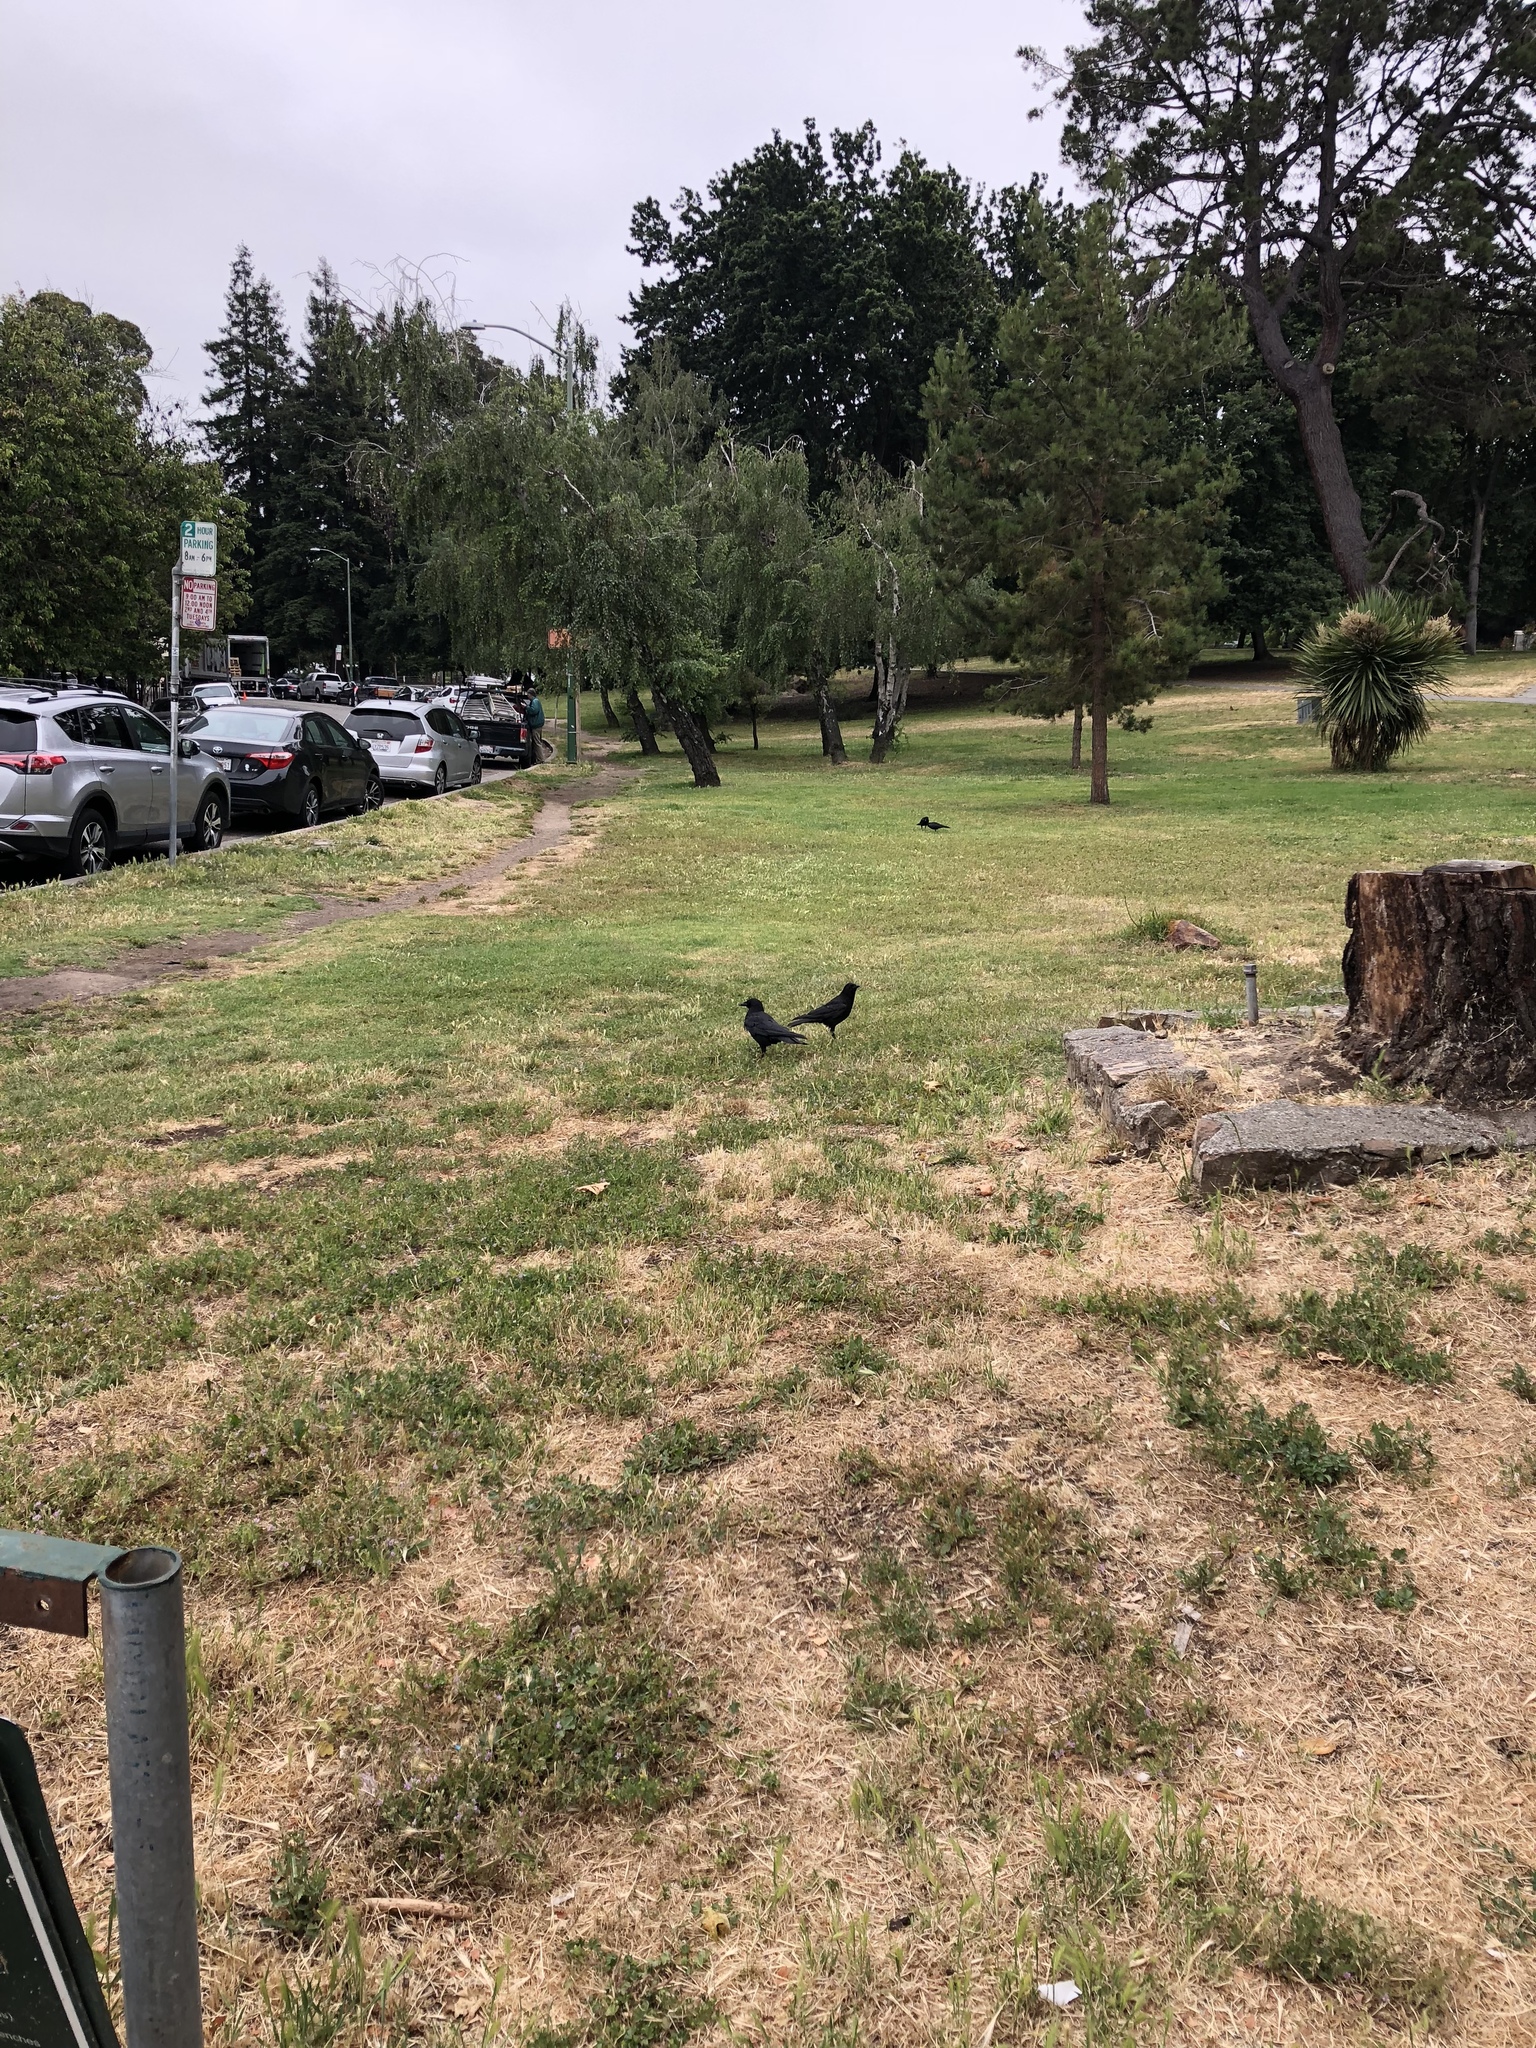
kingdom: Animalia
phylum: Chordata
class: Aves
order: Passeriformes
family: Corvidae
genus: Corvus
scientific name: Corvus brachyrhynchos
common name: American crow
